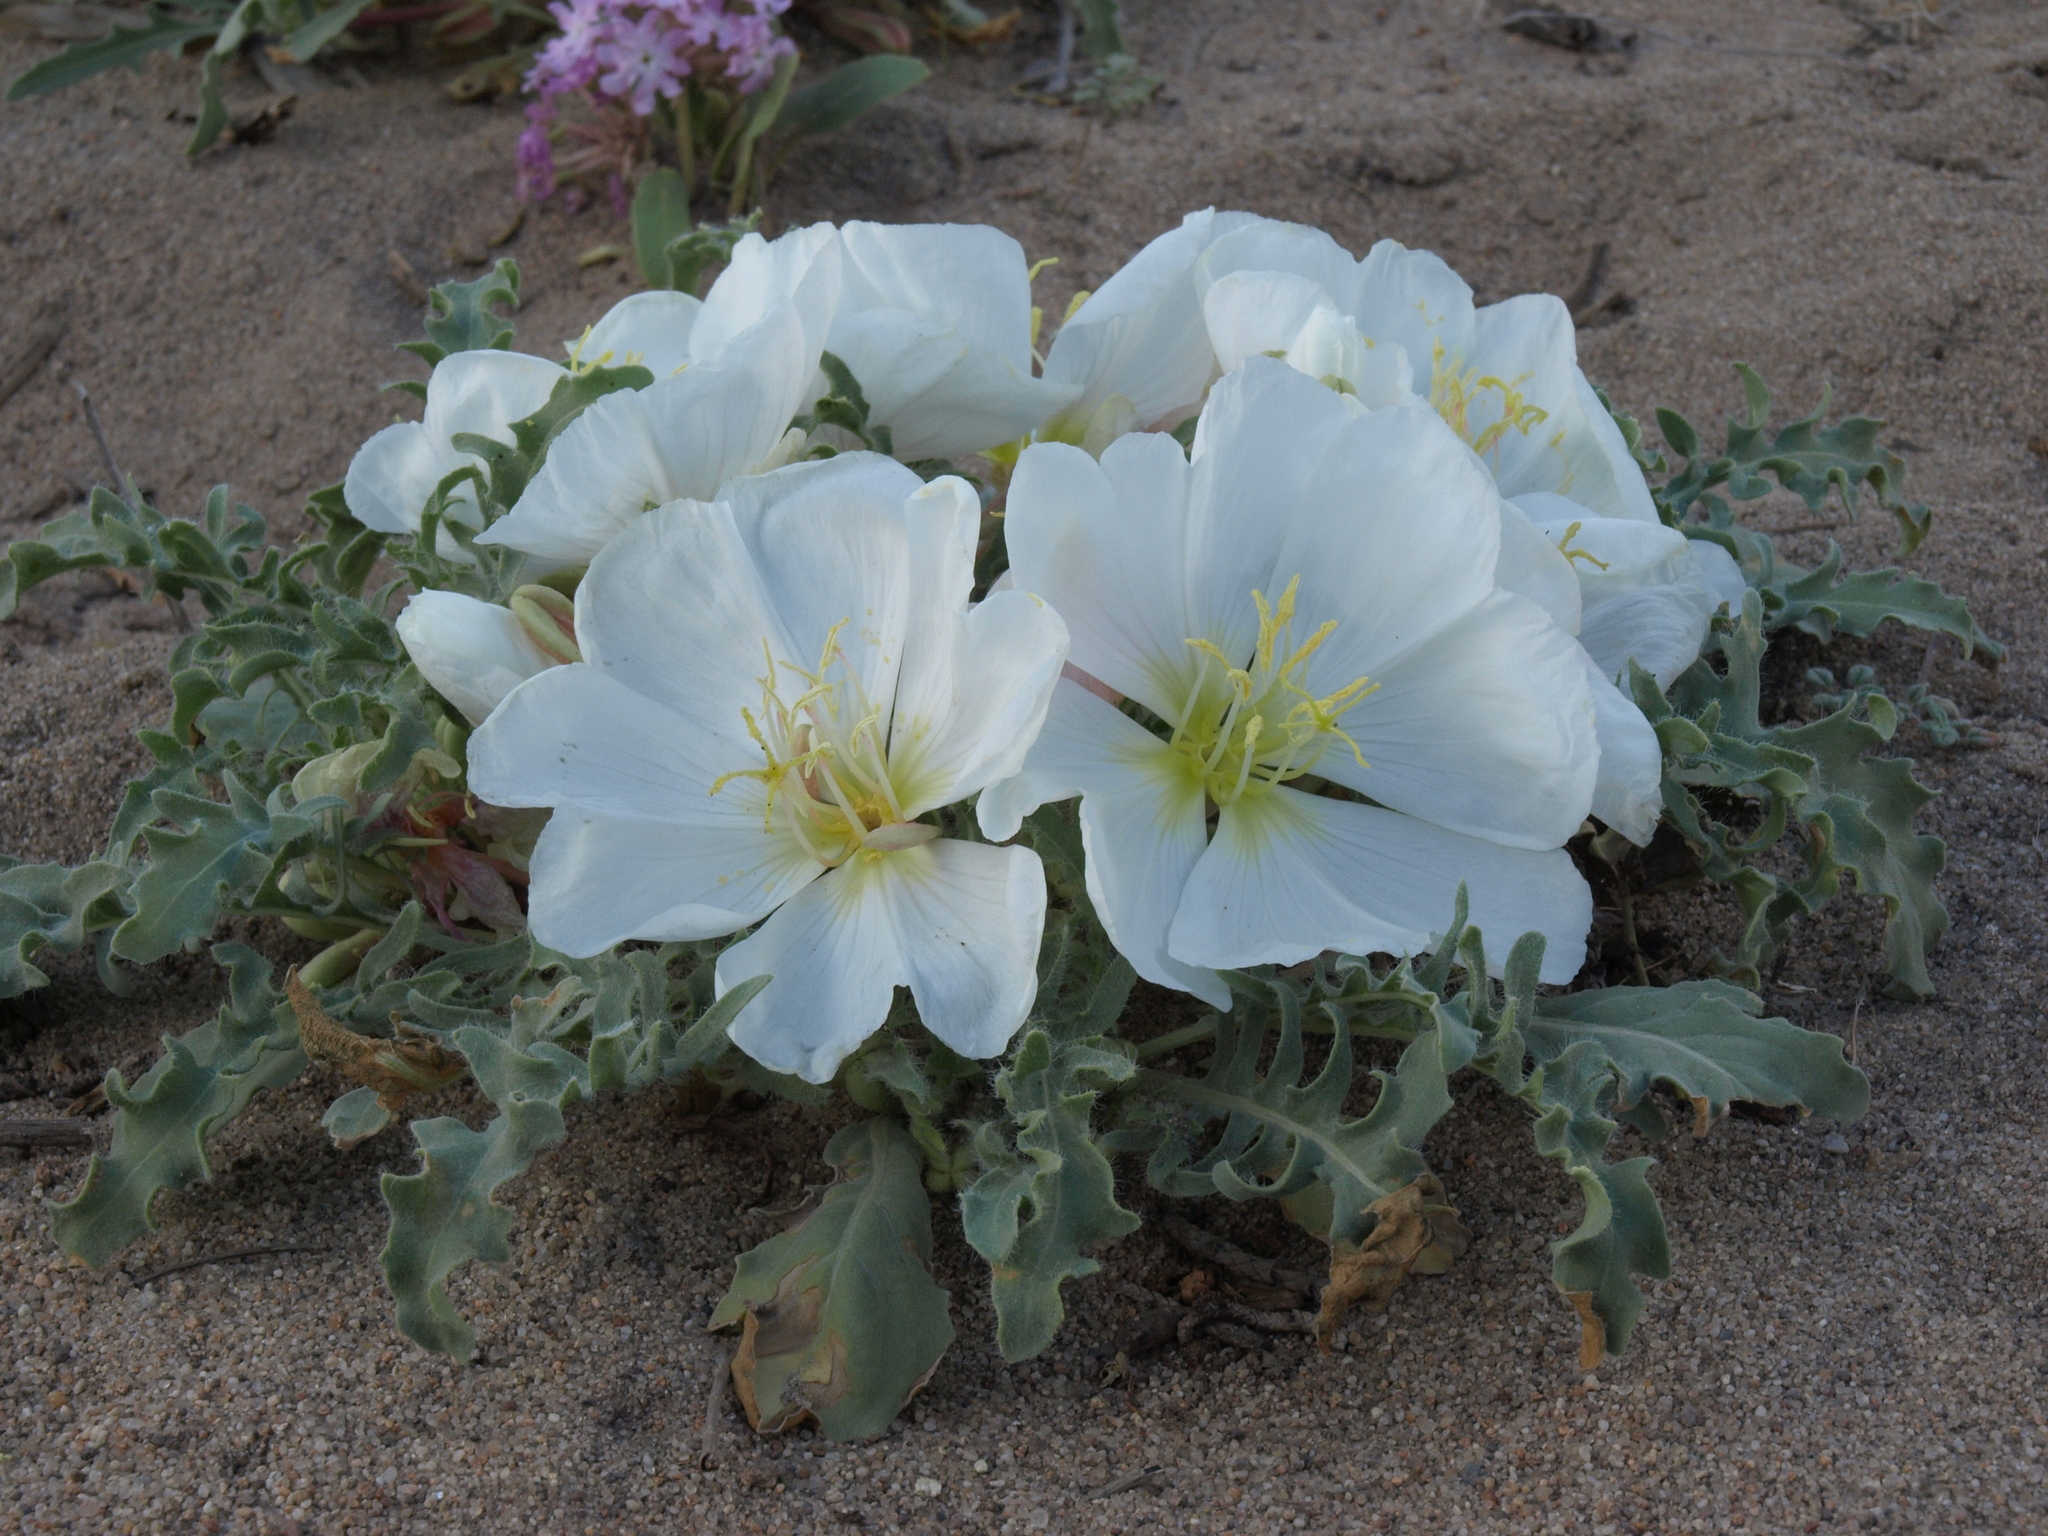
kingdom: Plantae
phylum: Tracheophyta
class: Magnoliopsida
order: Myrtales
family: Onagraceae
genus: Oenothera
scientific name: Oenothera deltoides
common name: Basket evening-primrose
